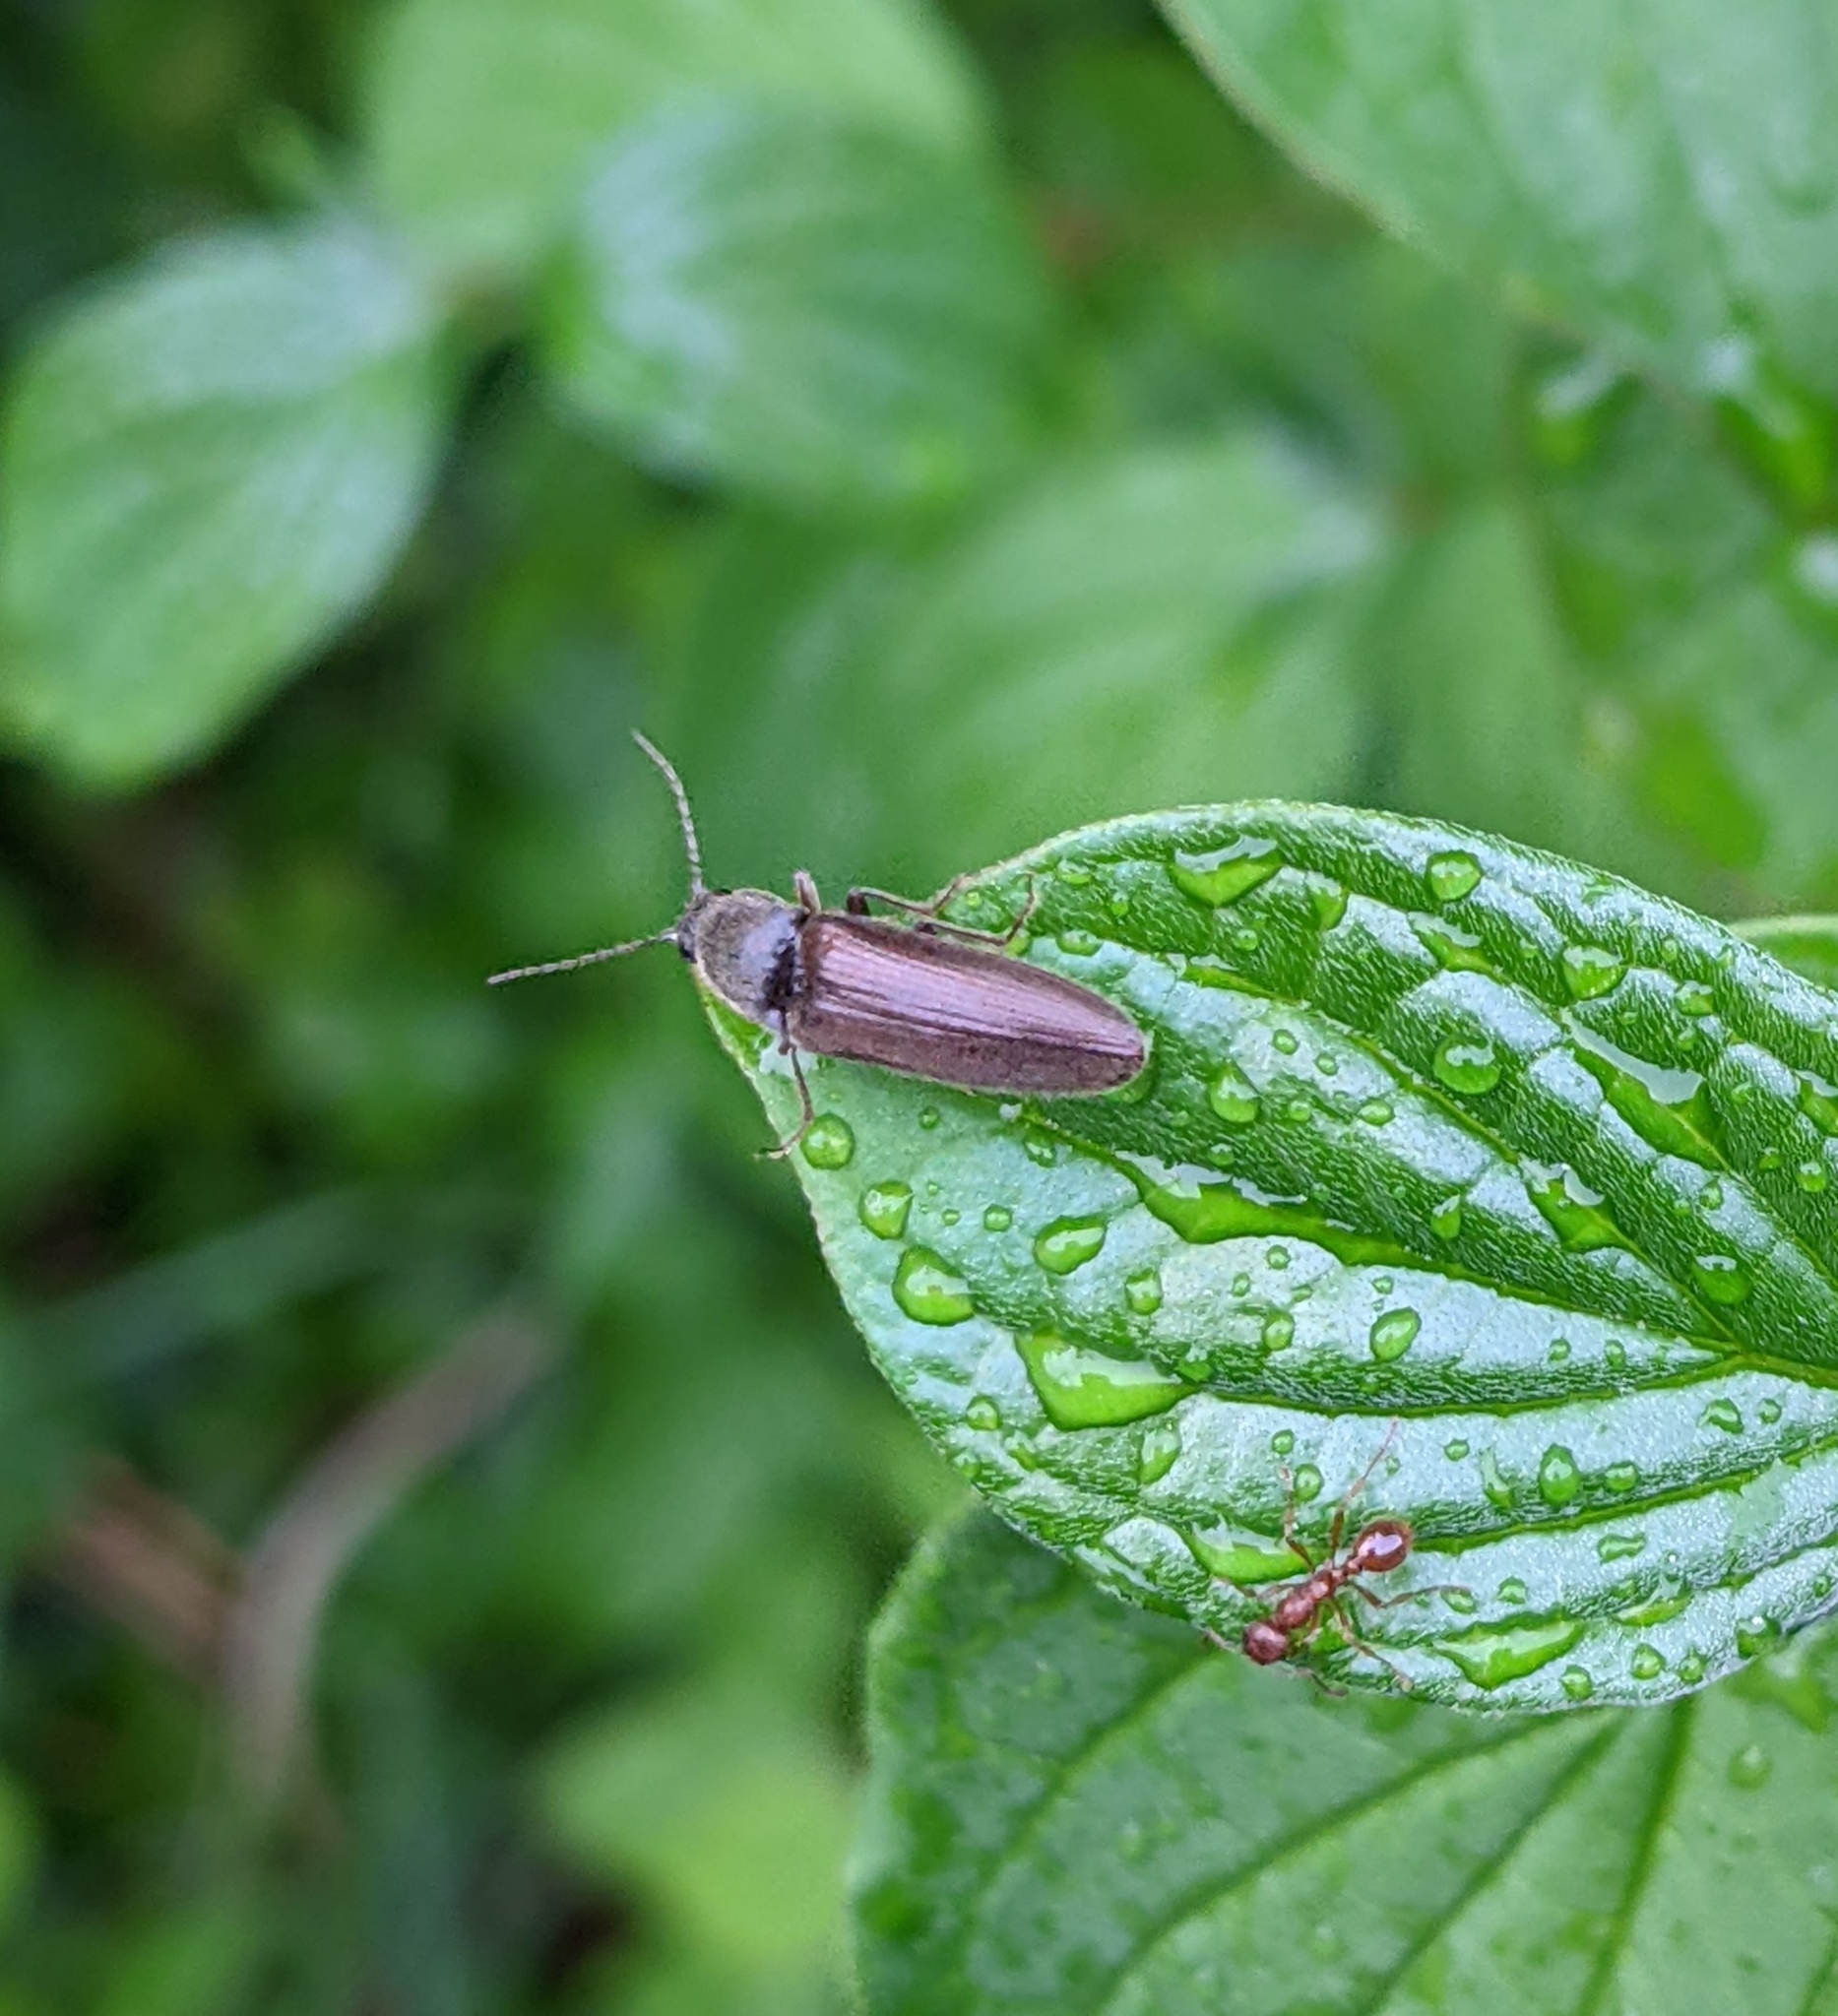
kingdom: Animalia
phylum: Arthropoda
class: Insecta
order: Coleoptera
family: Elateridae
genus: Athous
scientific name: Athous haemorrhoidalis
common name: Red-brown click beetle
